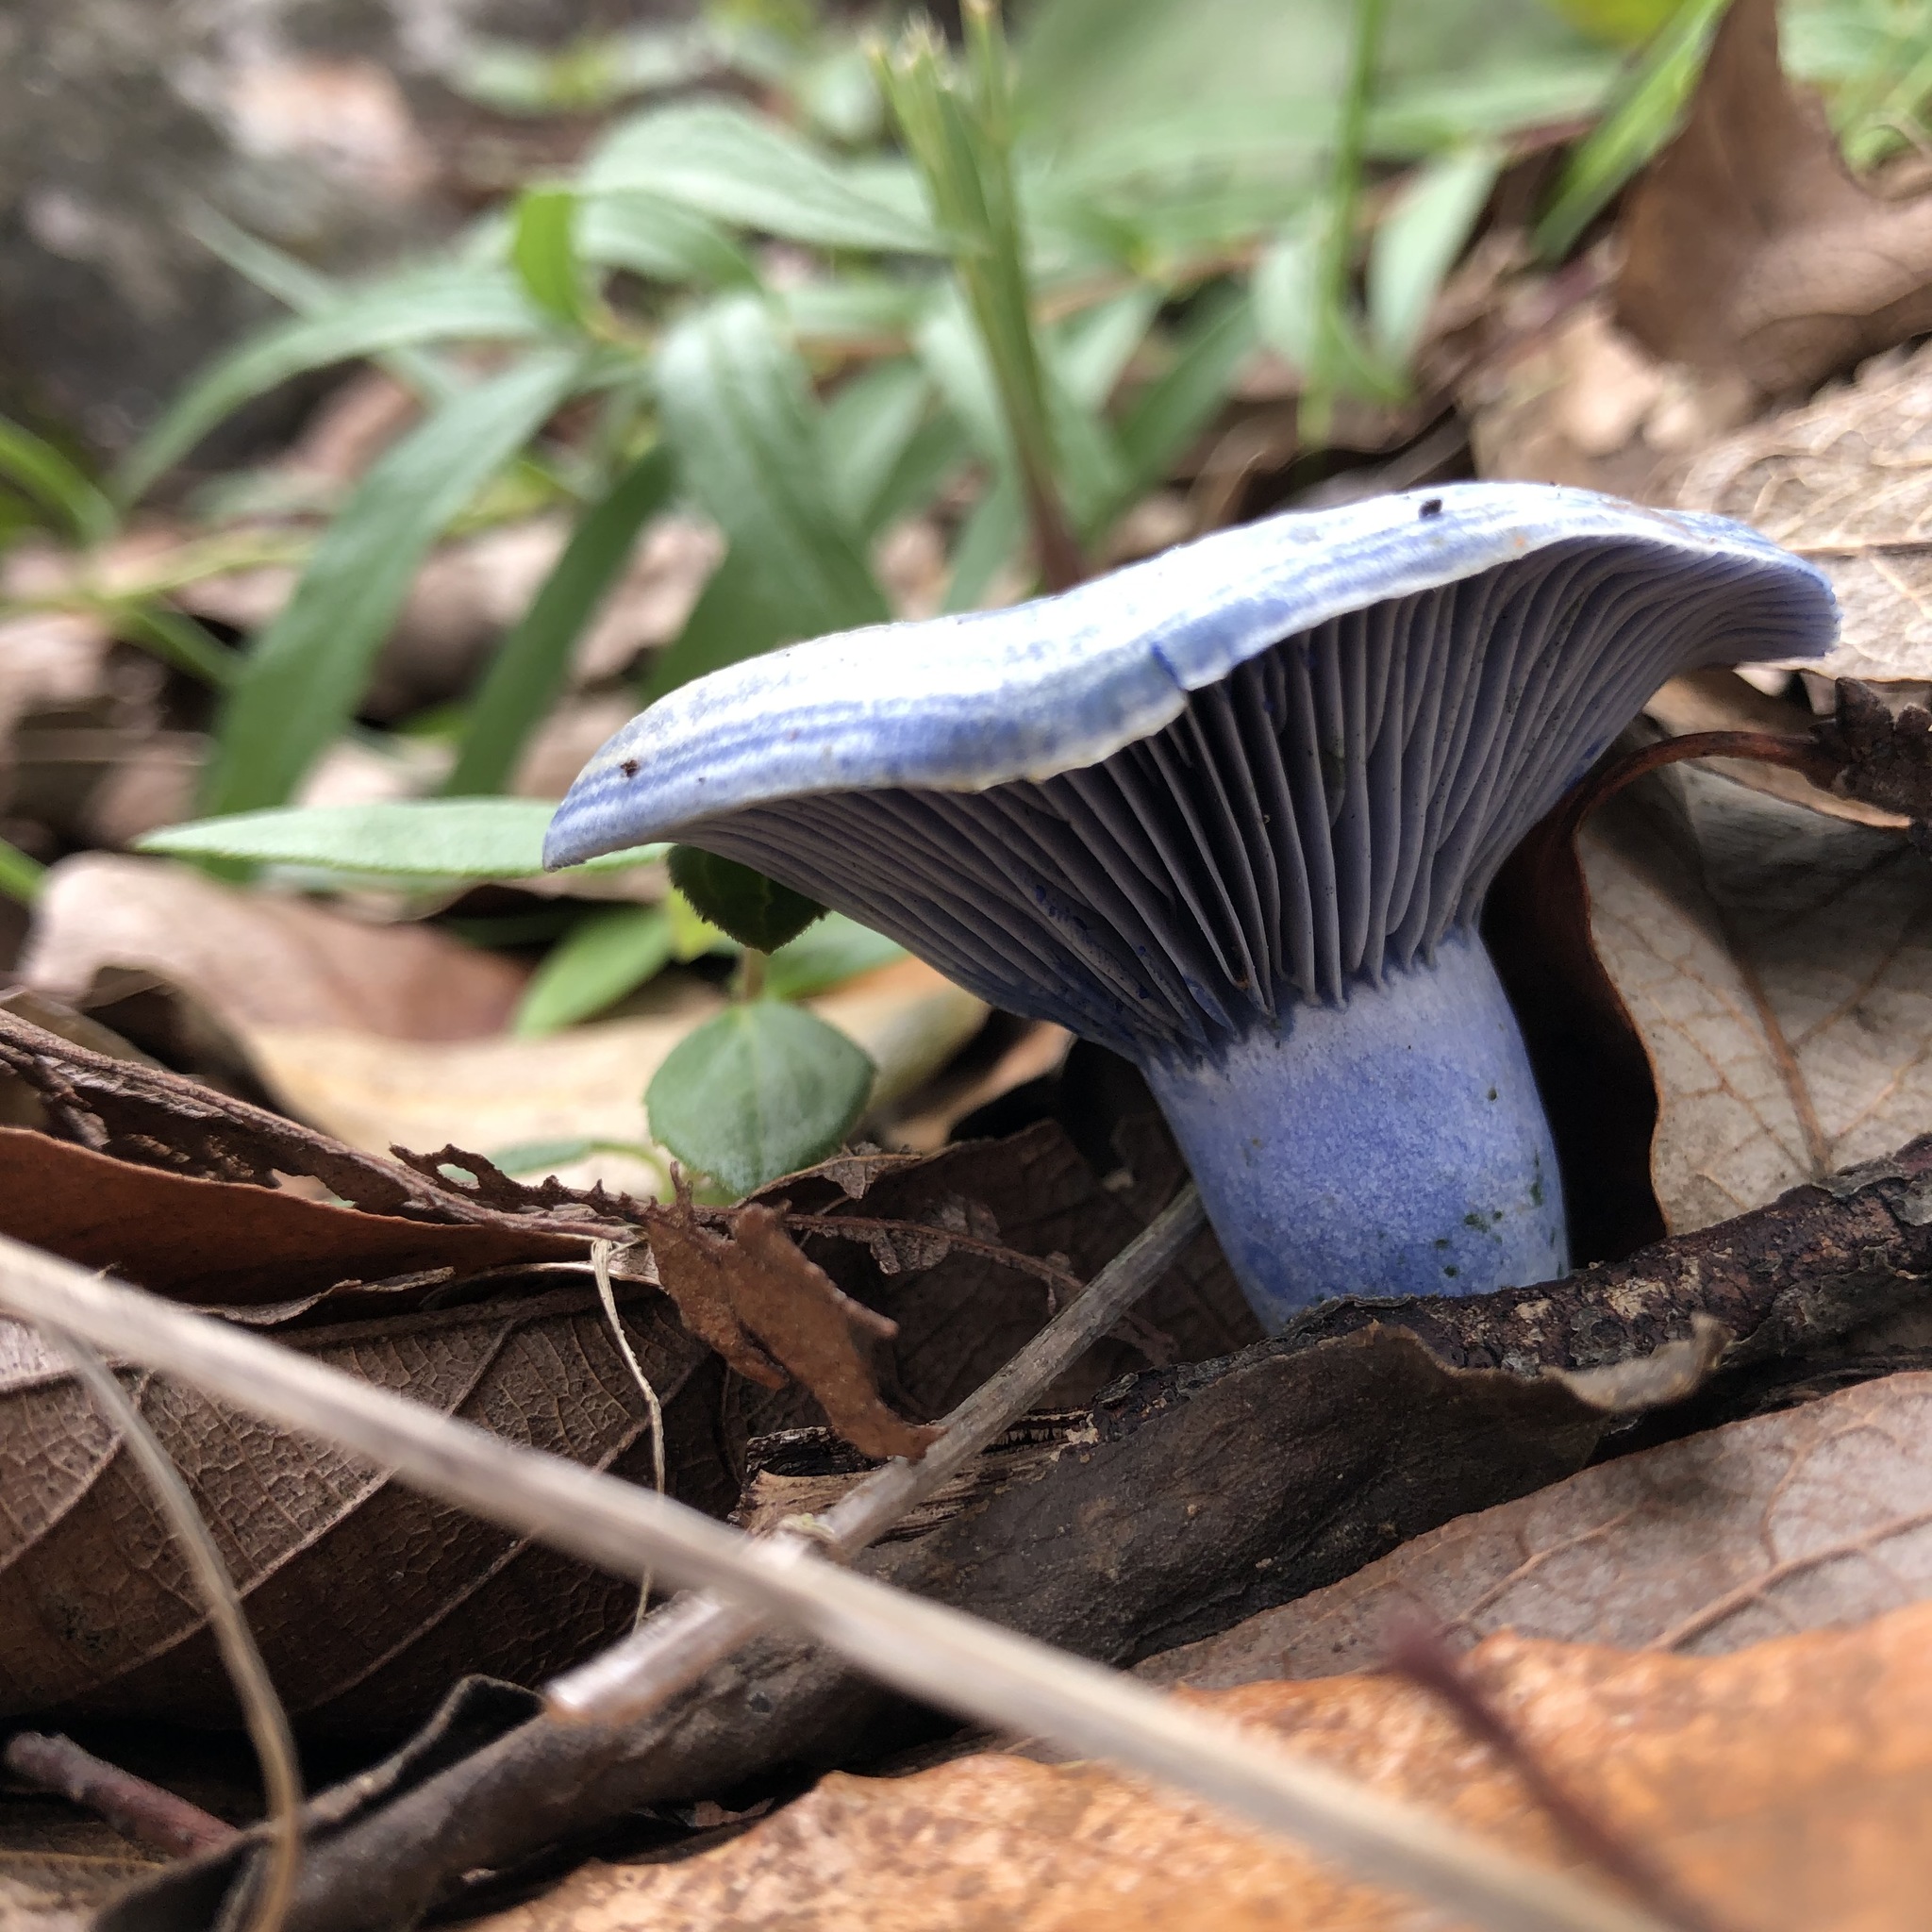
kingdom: Fungi
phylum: Basidiomycota
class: Agaricomycetes
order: Russulales
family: Russulaceae
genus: Lactarius
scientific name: Lactarius indigo
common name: Indigo milk cap
